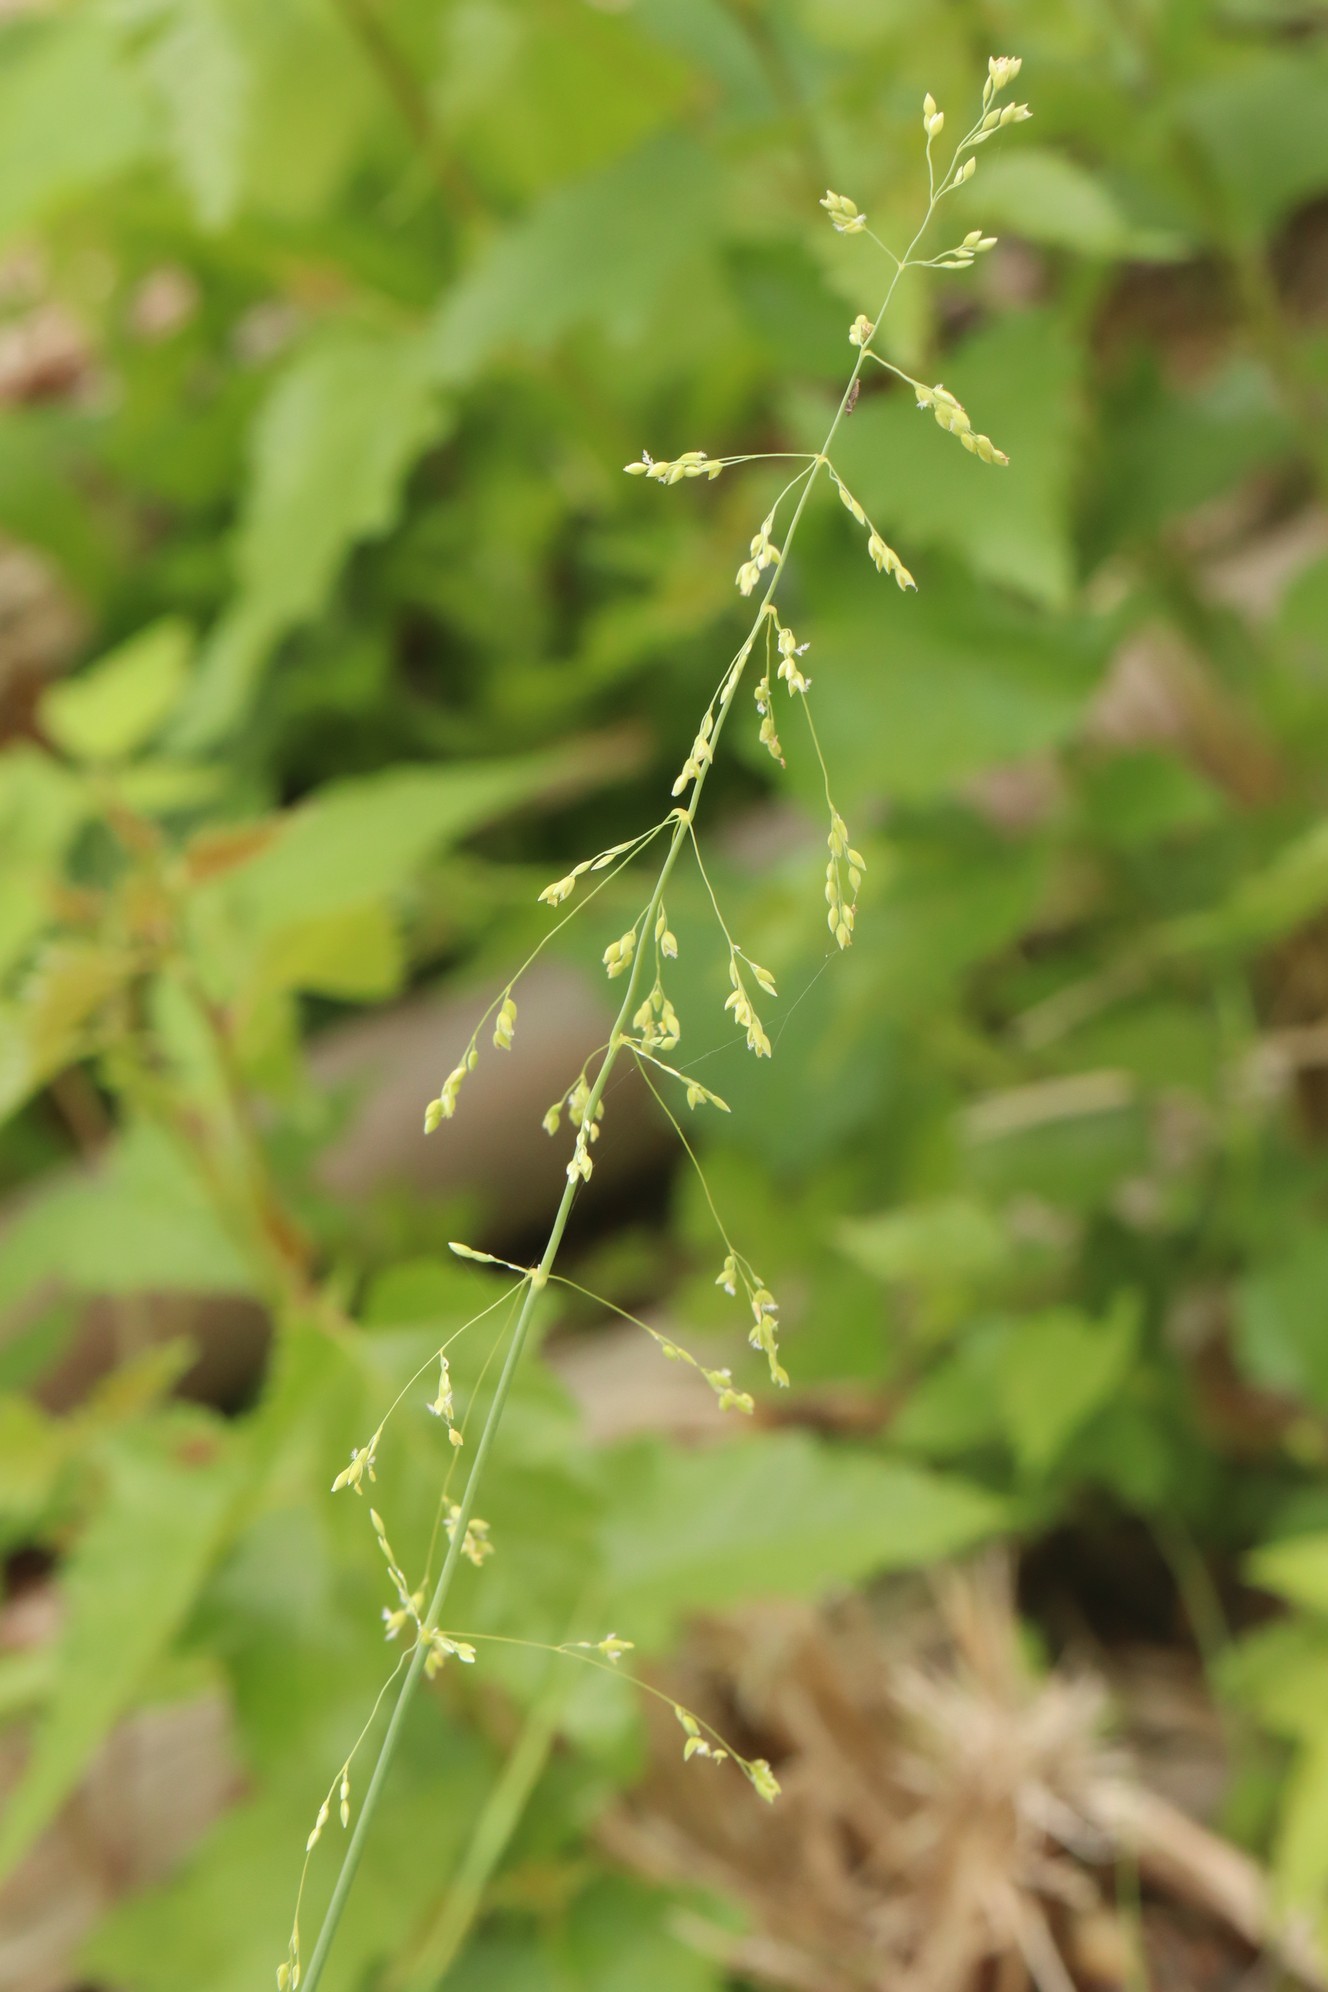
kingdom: Plantae
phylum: Tracheophyta
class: Liliopsida
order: Poales
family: Poaceae
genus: Milium
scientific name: Milium effusum
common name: Wood millet
